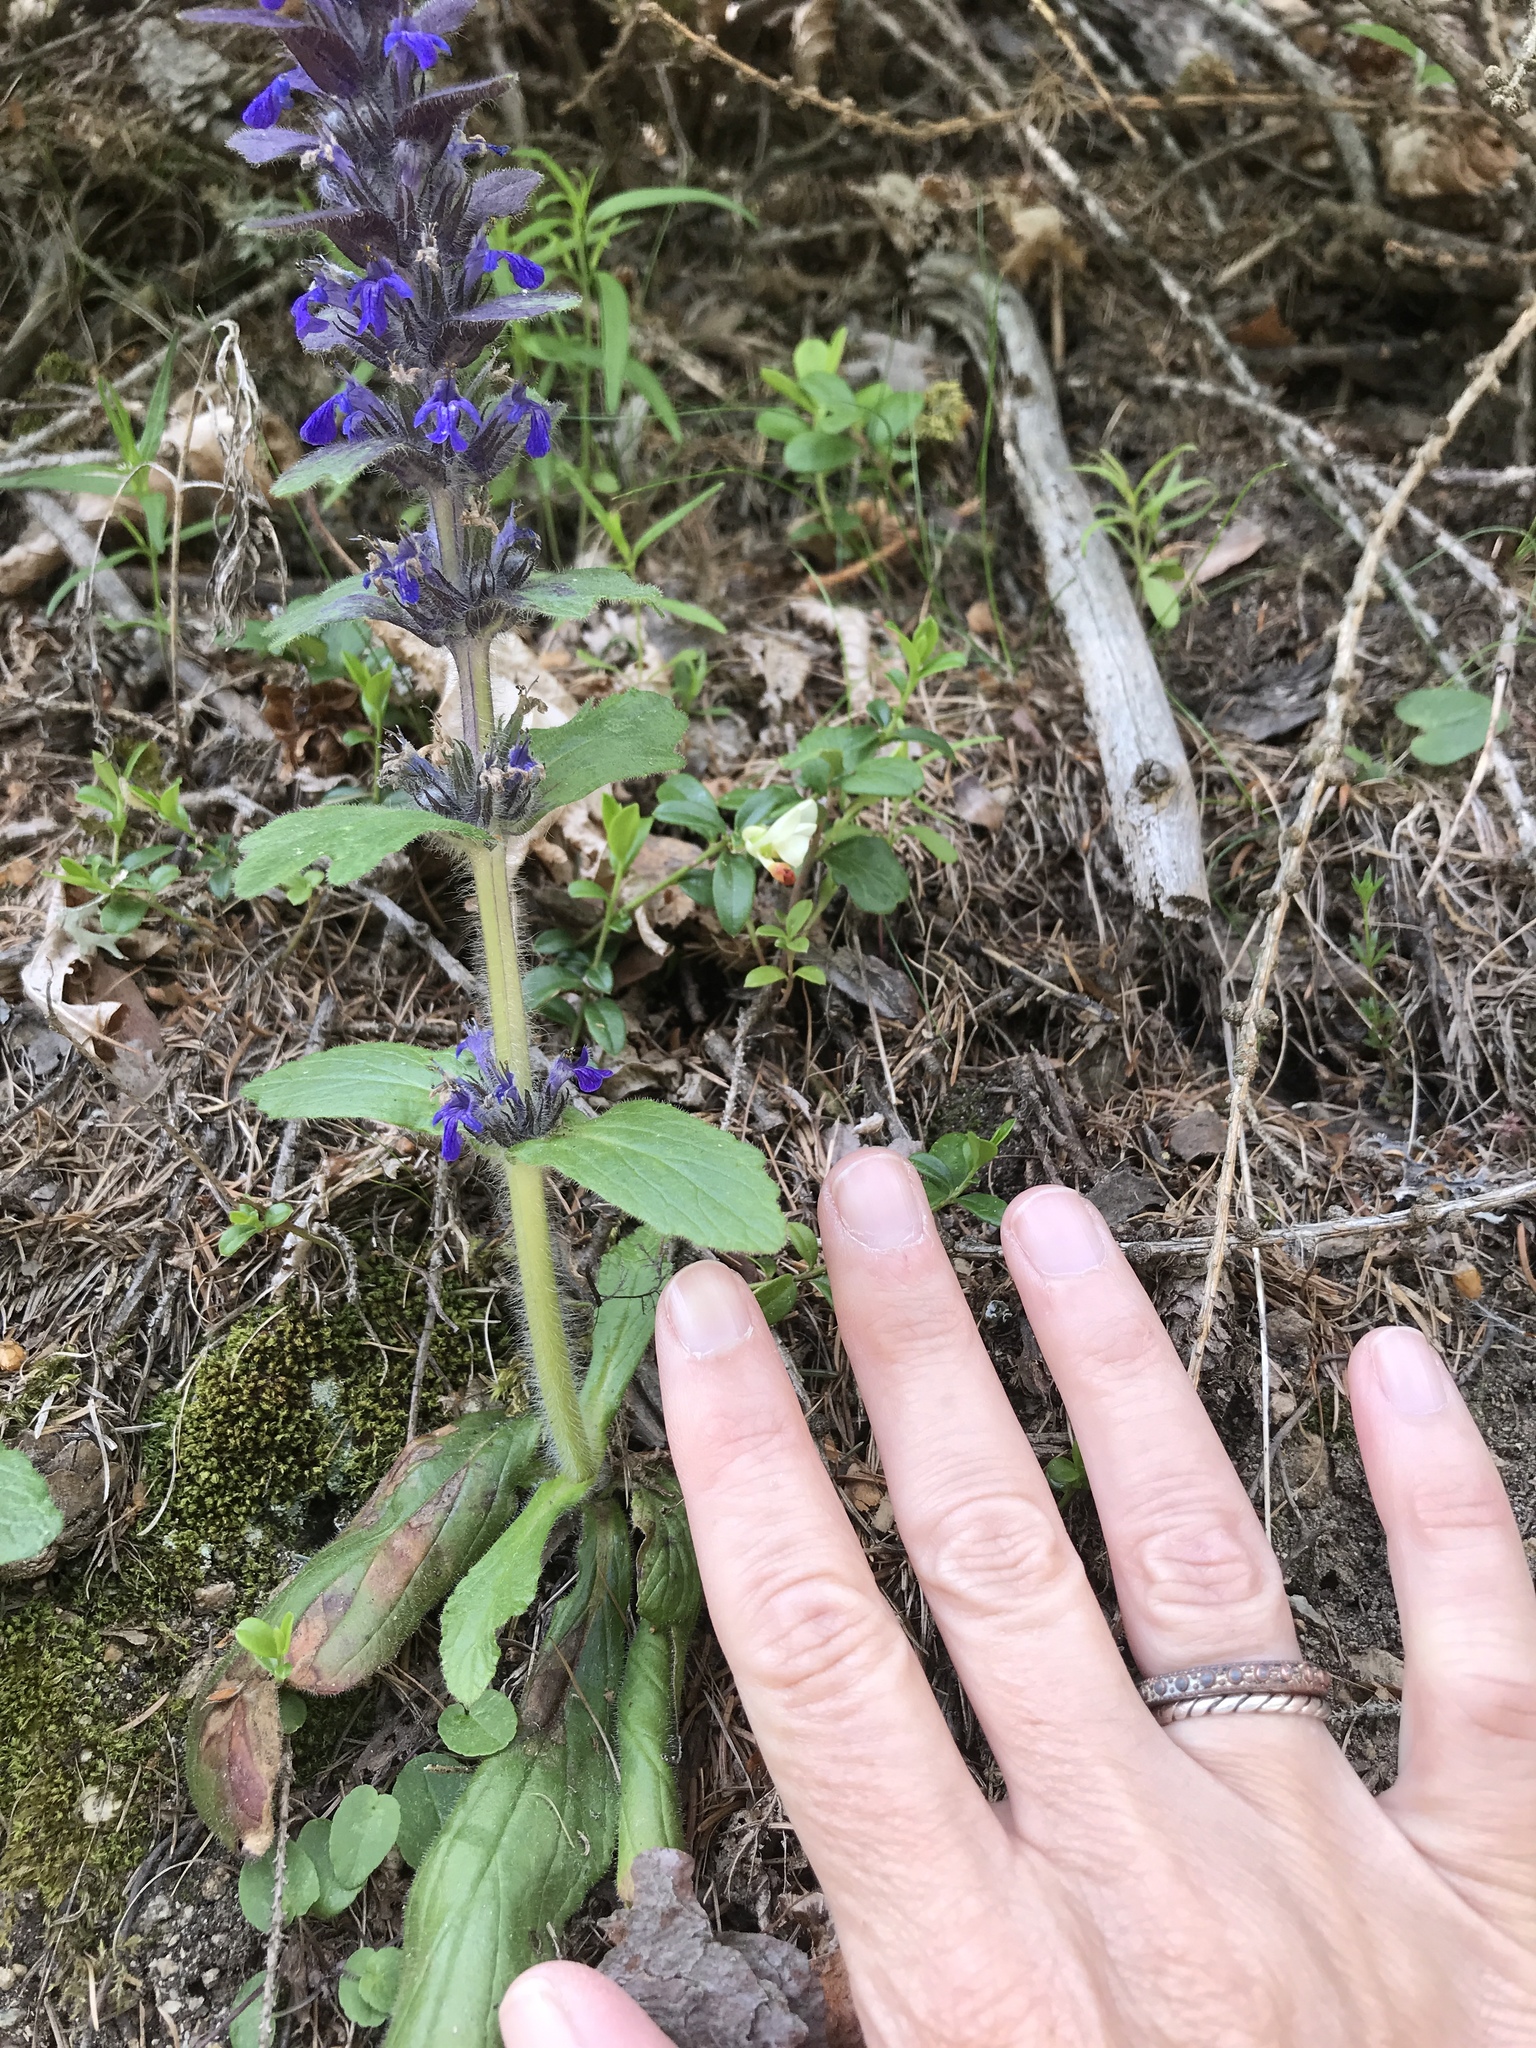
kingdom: Plantae
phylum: Tracheophyta
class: Magnoliopsida
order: Lamiales
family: Lamiaceae
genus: Ajuga
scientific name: Ajuga genevensis
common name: Blue bugle
